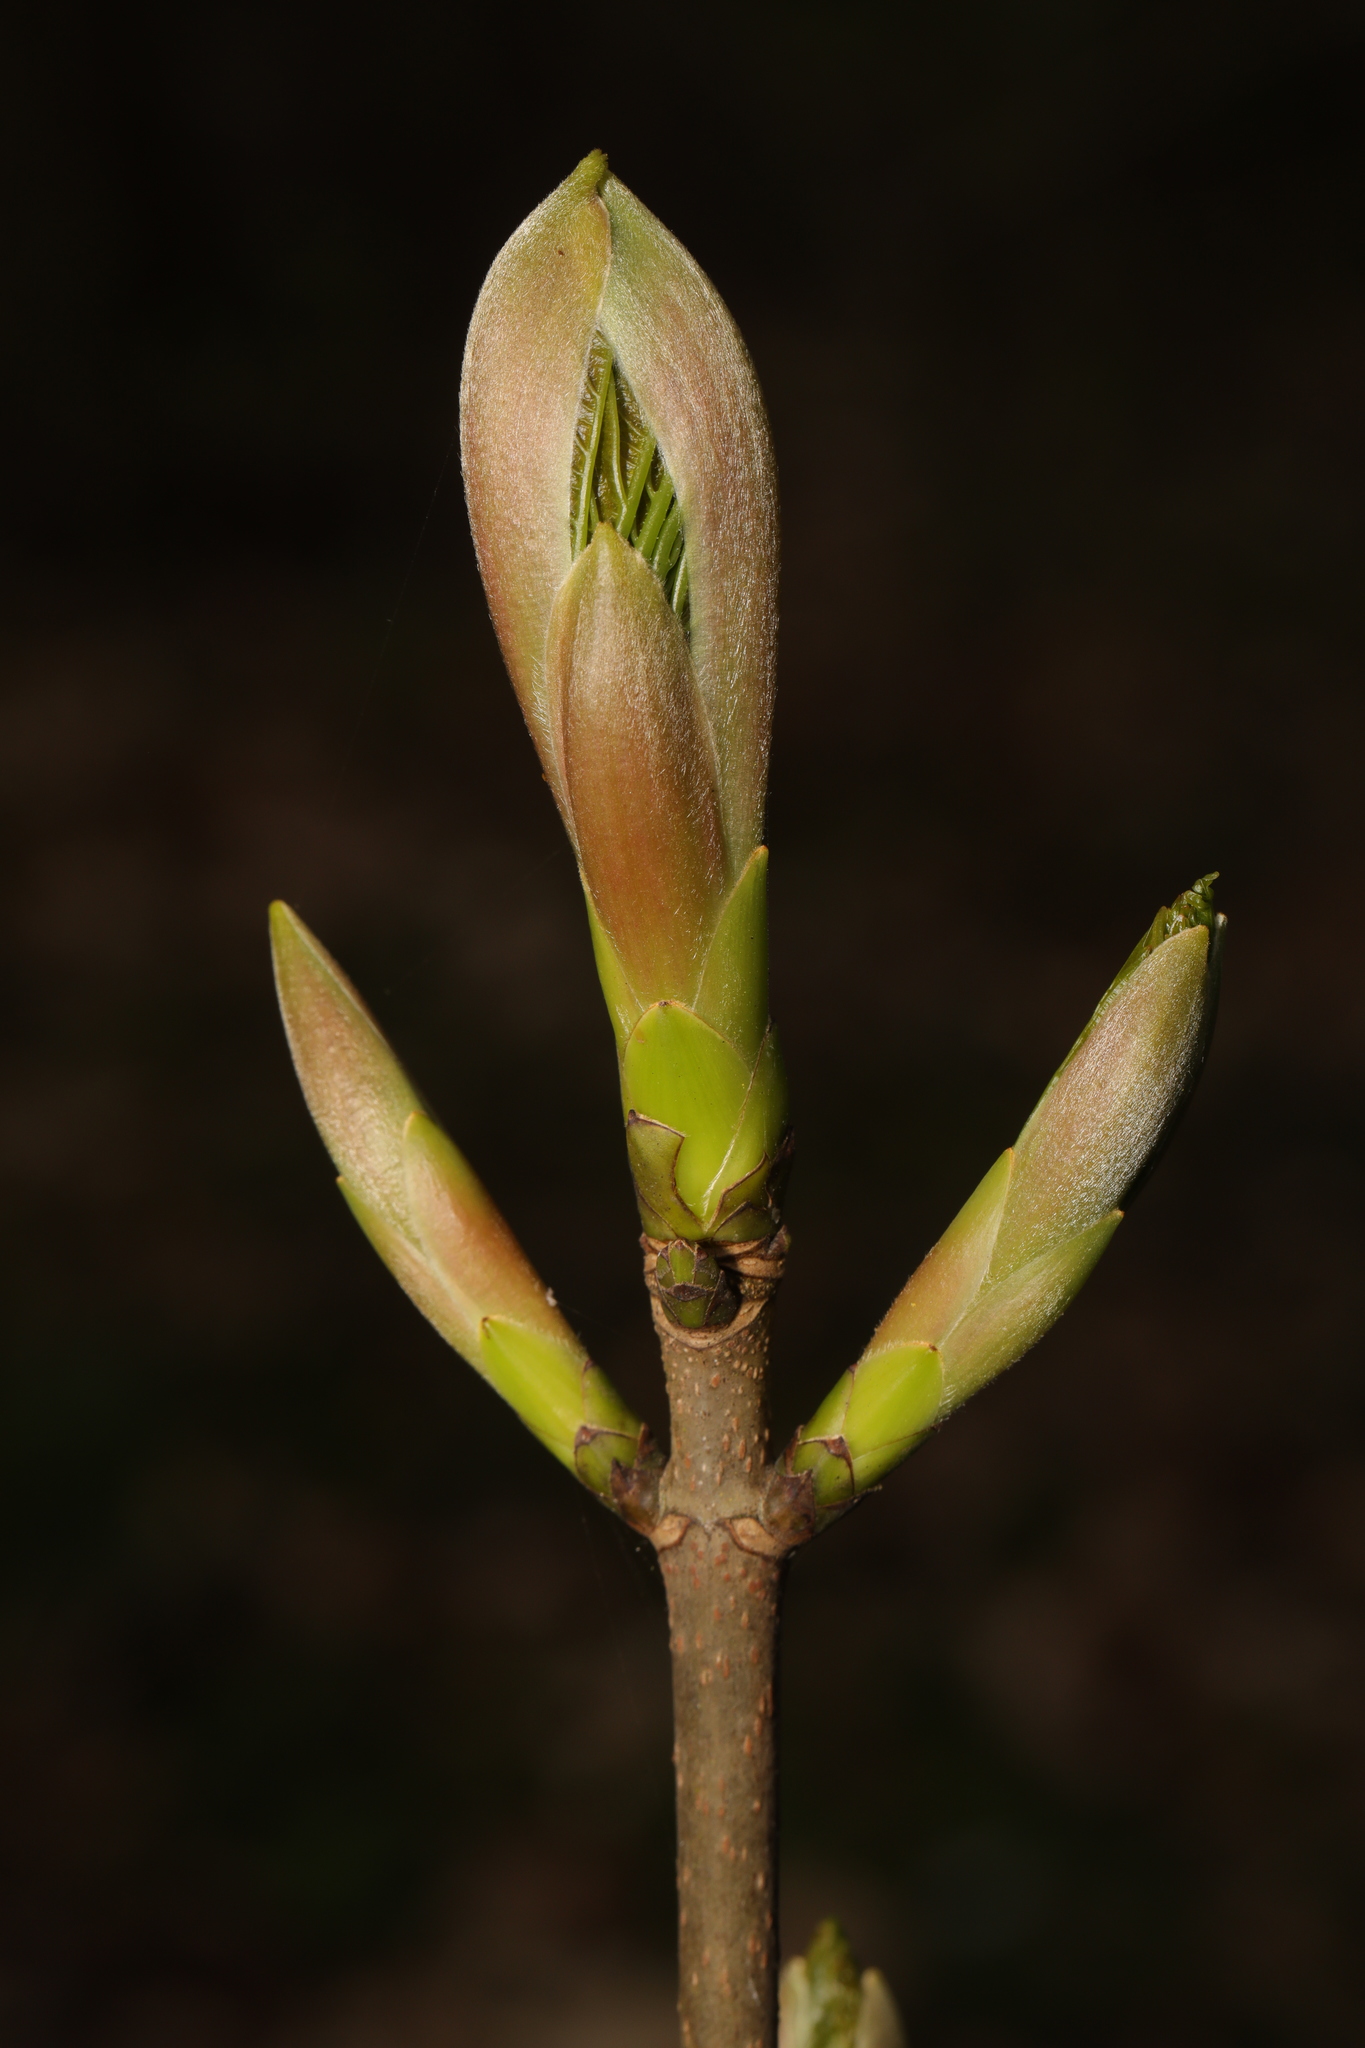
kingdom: Plantae
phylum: Tracheophyta
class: Magnoliopsida
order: Sapindales
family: Sapindaceae
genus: Acer
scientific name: Acer pseudoplatanus
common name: Sycamore
